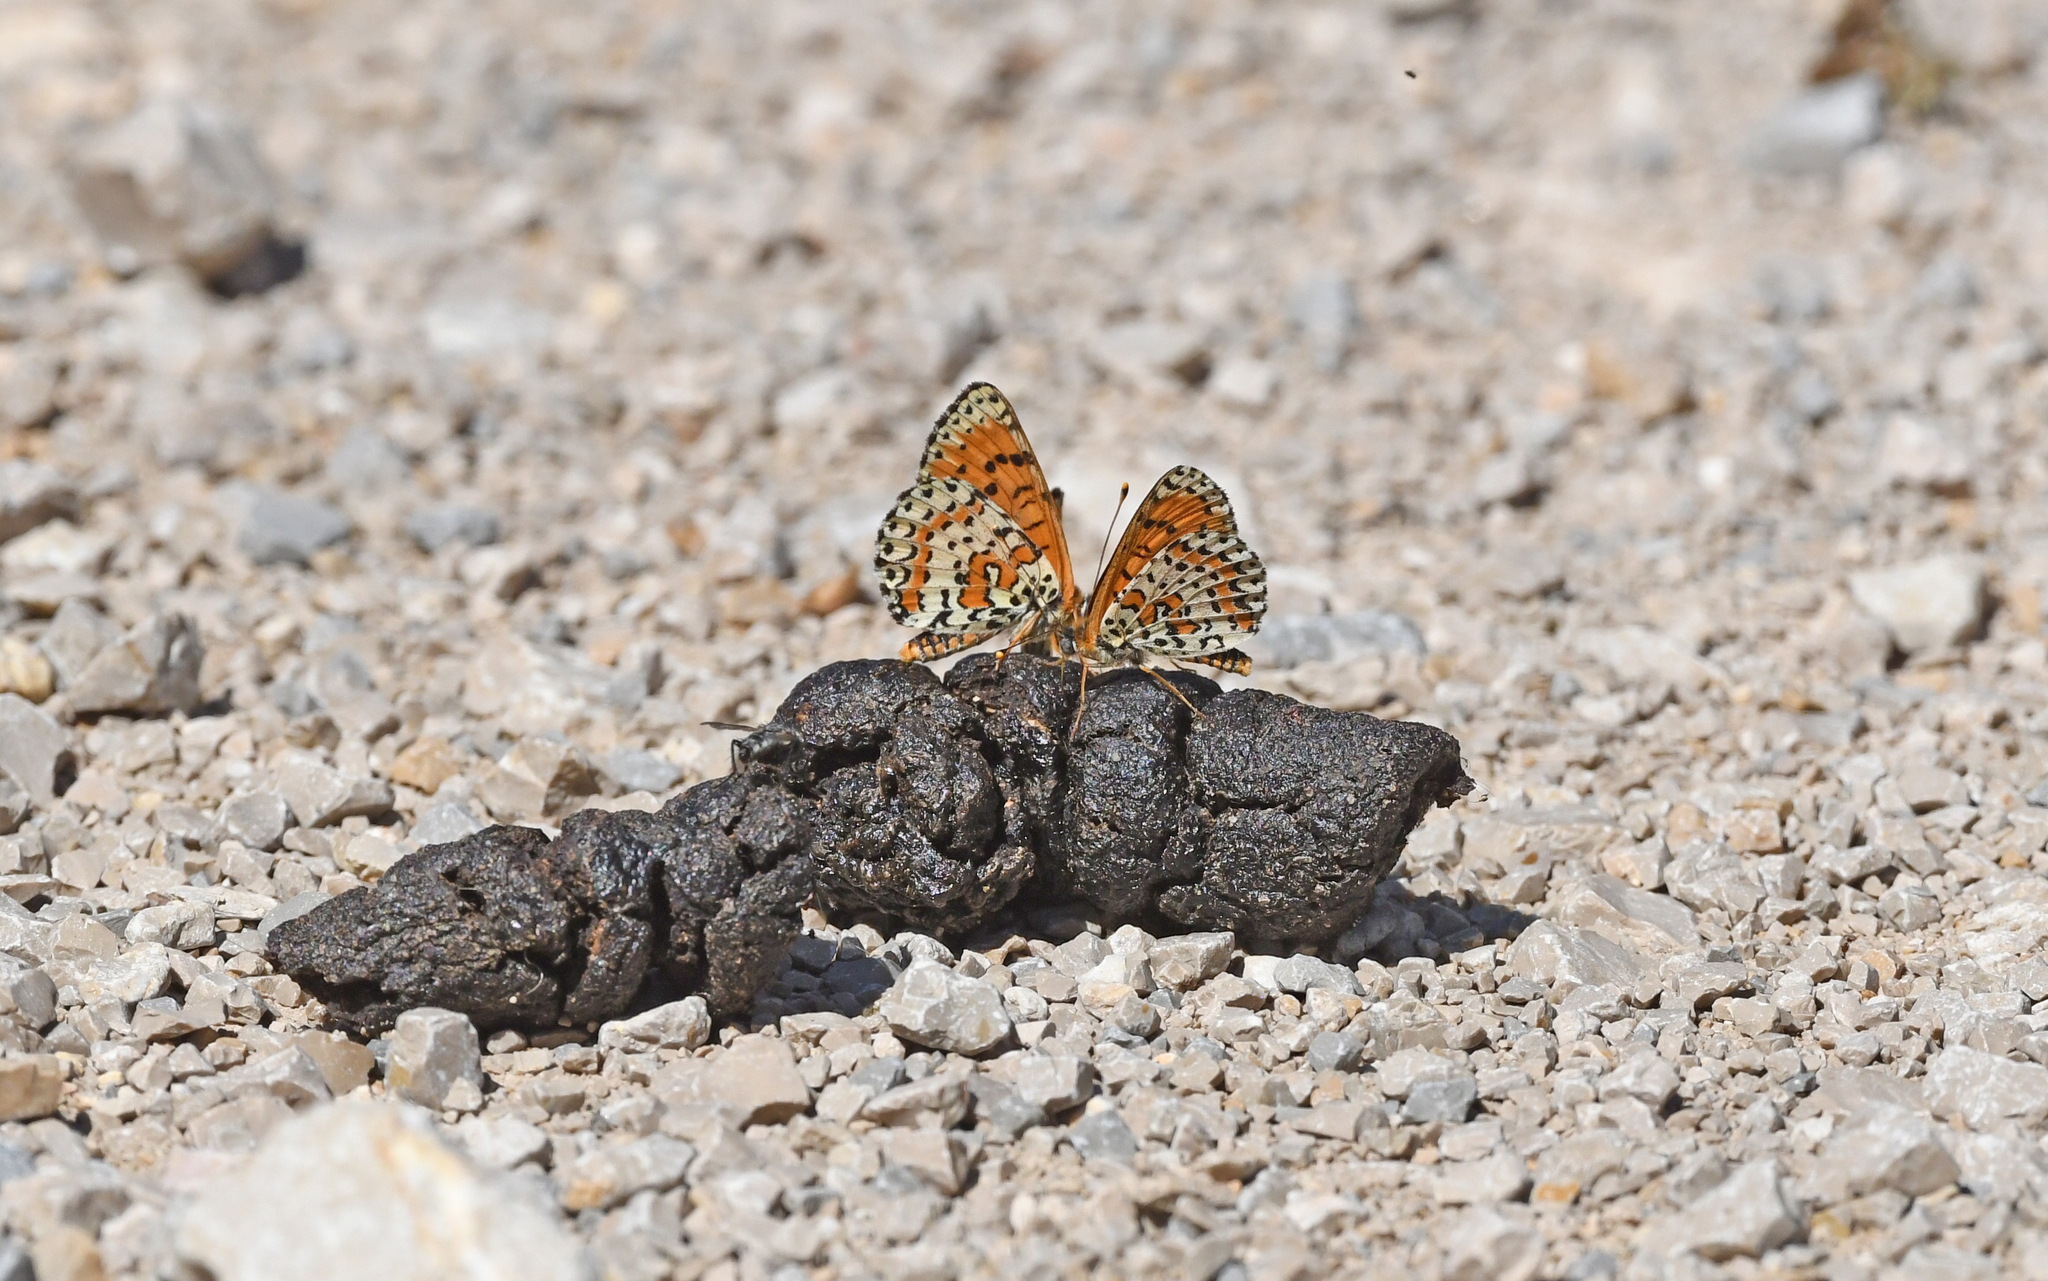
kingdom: Animalia
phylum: Arthropoda
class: Insecta
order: Lepidoptera
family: Nymphalidae
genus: Melitaea
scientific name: Melitaea didyma
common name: Spotted fritillary
